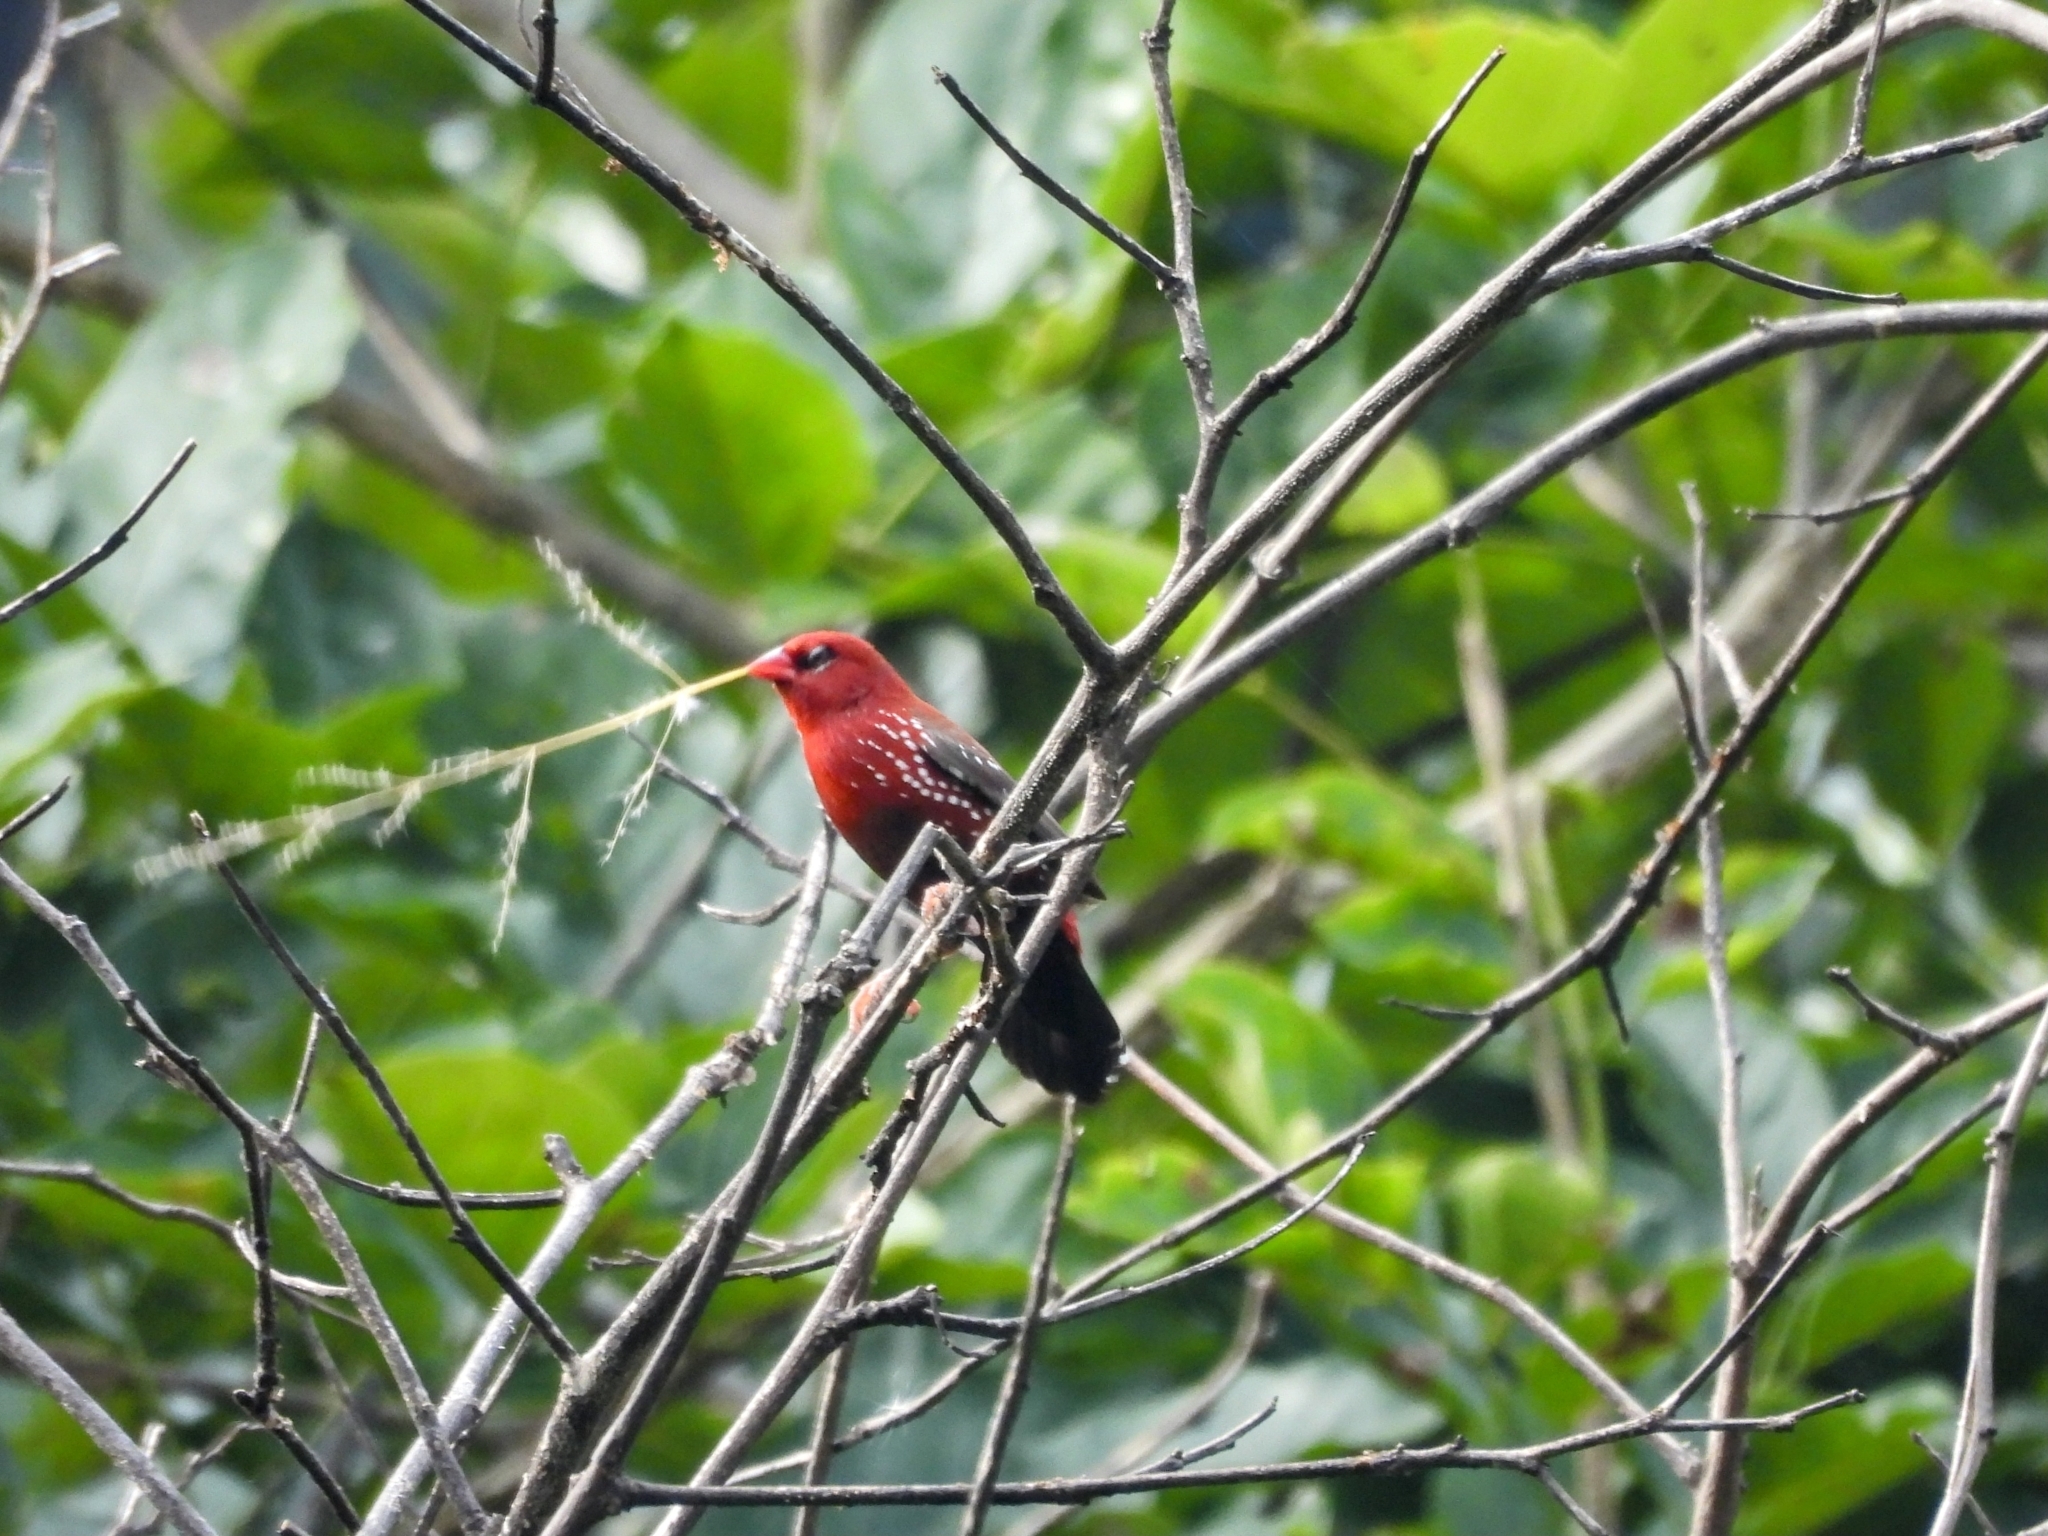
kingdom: Animalia
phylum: Chordata
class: Aves
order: Passeriformes
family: Estrildidae
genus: Amandava
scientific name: Amandava amandava
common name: Red avadavat
